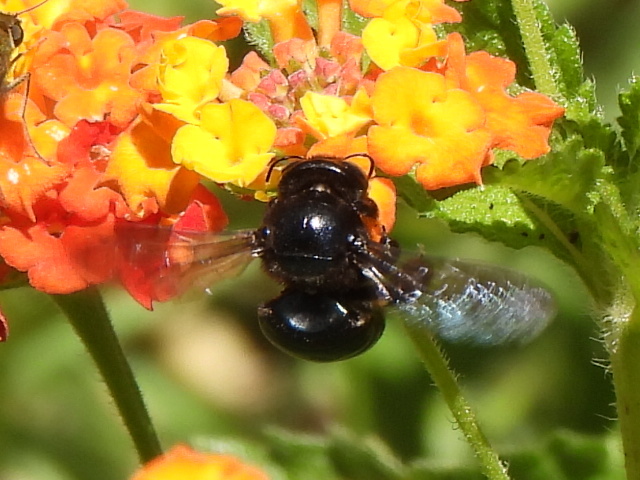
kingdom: Animalia
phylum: Arthropoda
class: Insecta
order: Hymenoptera
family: Apidae
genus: Xylocopa
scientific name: Xylocopa micans
